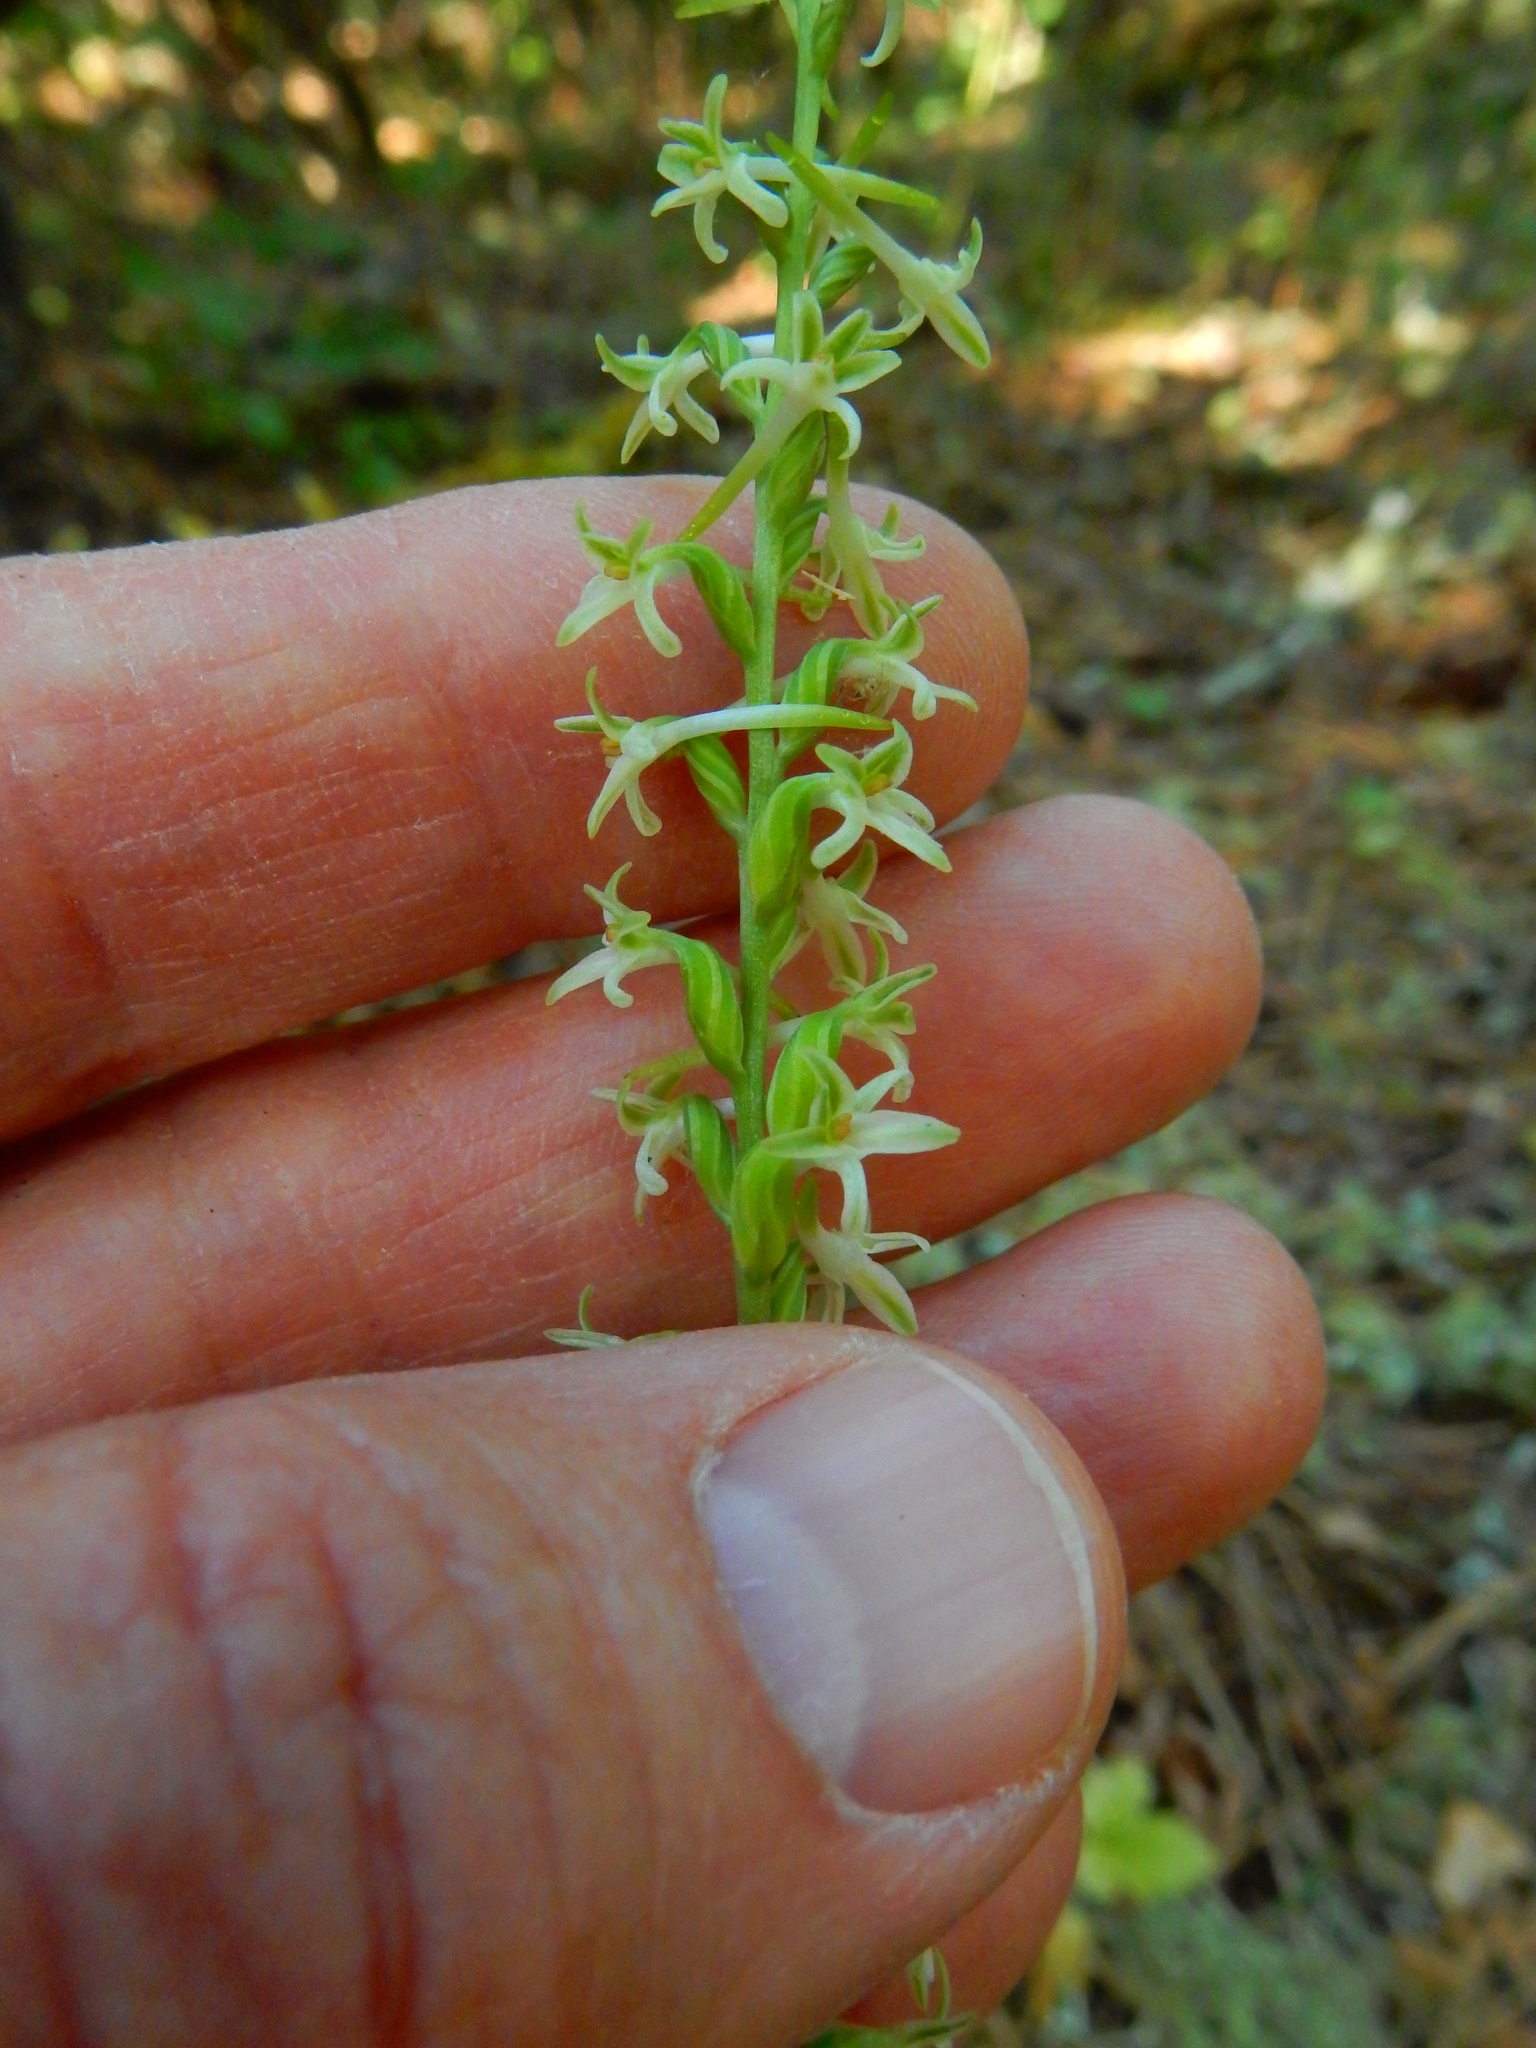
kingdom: Plantae
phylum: Tracheophyta
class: Liliopsida
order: Asparagales
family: Orchidaceae
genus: Platanthera
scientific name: Platanthera transversa
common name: Royal rein orchid
